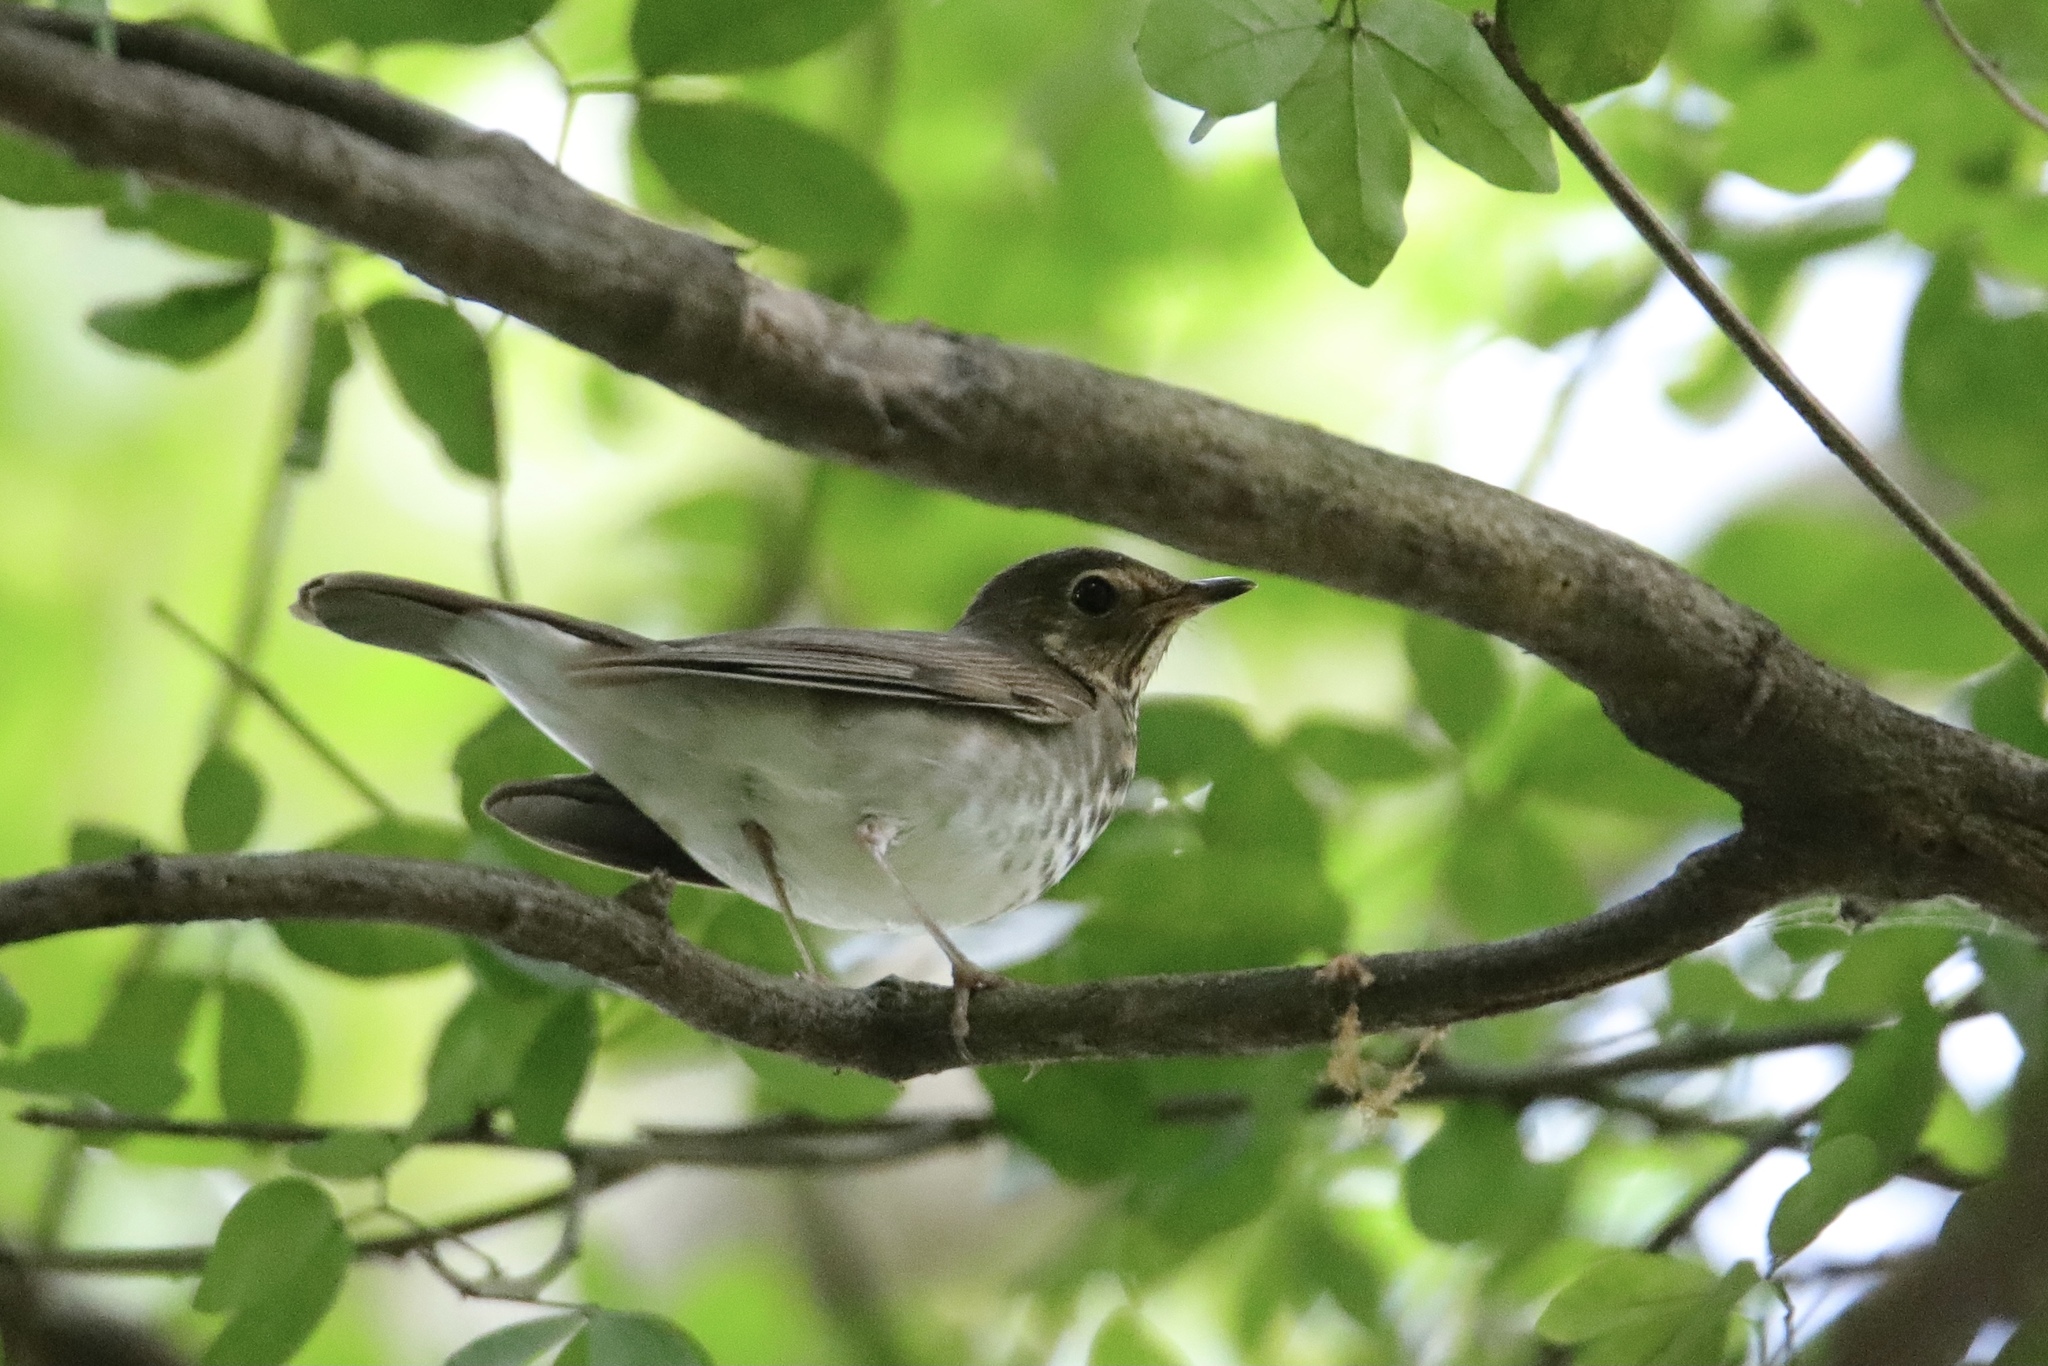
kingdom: Animalia
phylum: Chordata
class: Aves
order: Passeriformes
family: Turdidae
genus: Catharus
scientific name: Catharus ustulatus
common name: Swainson's thrush
